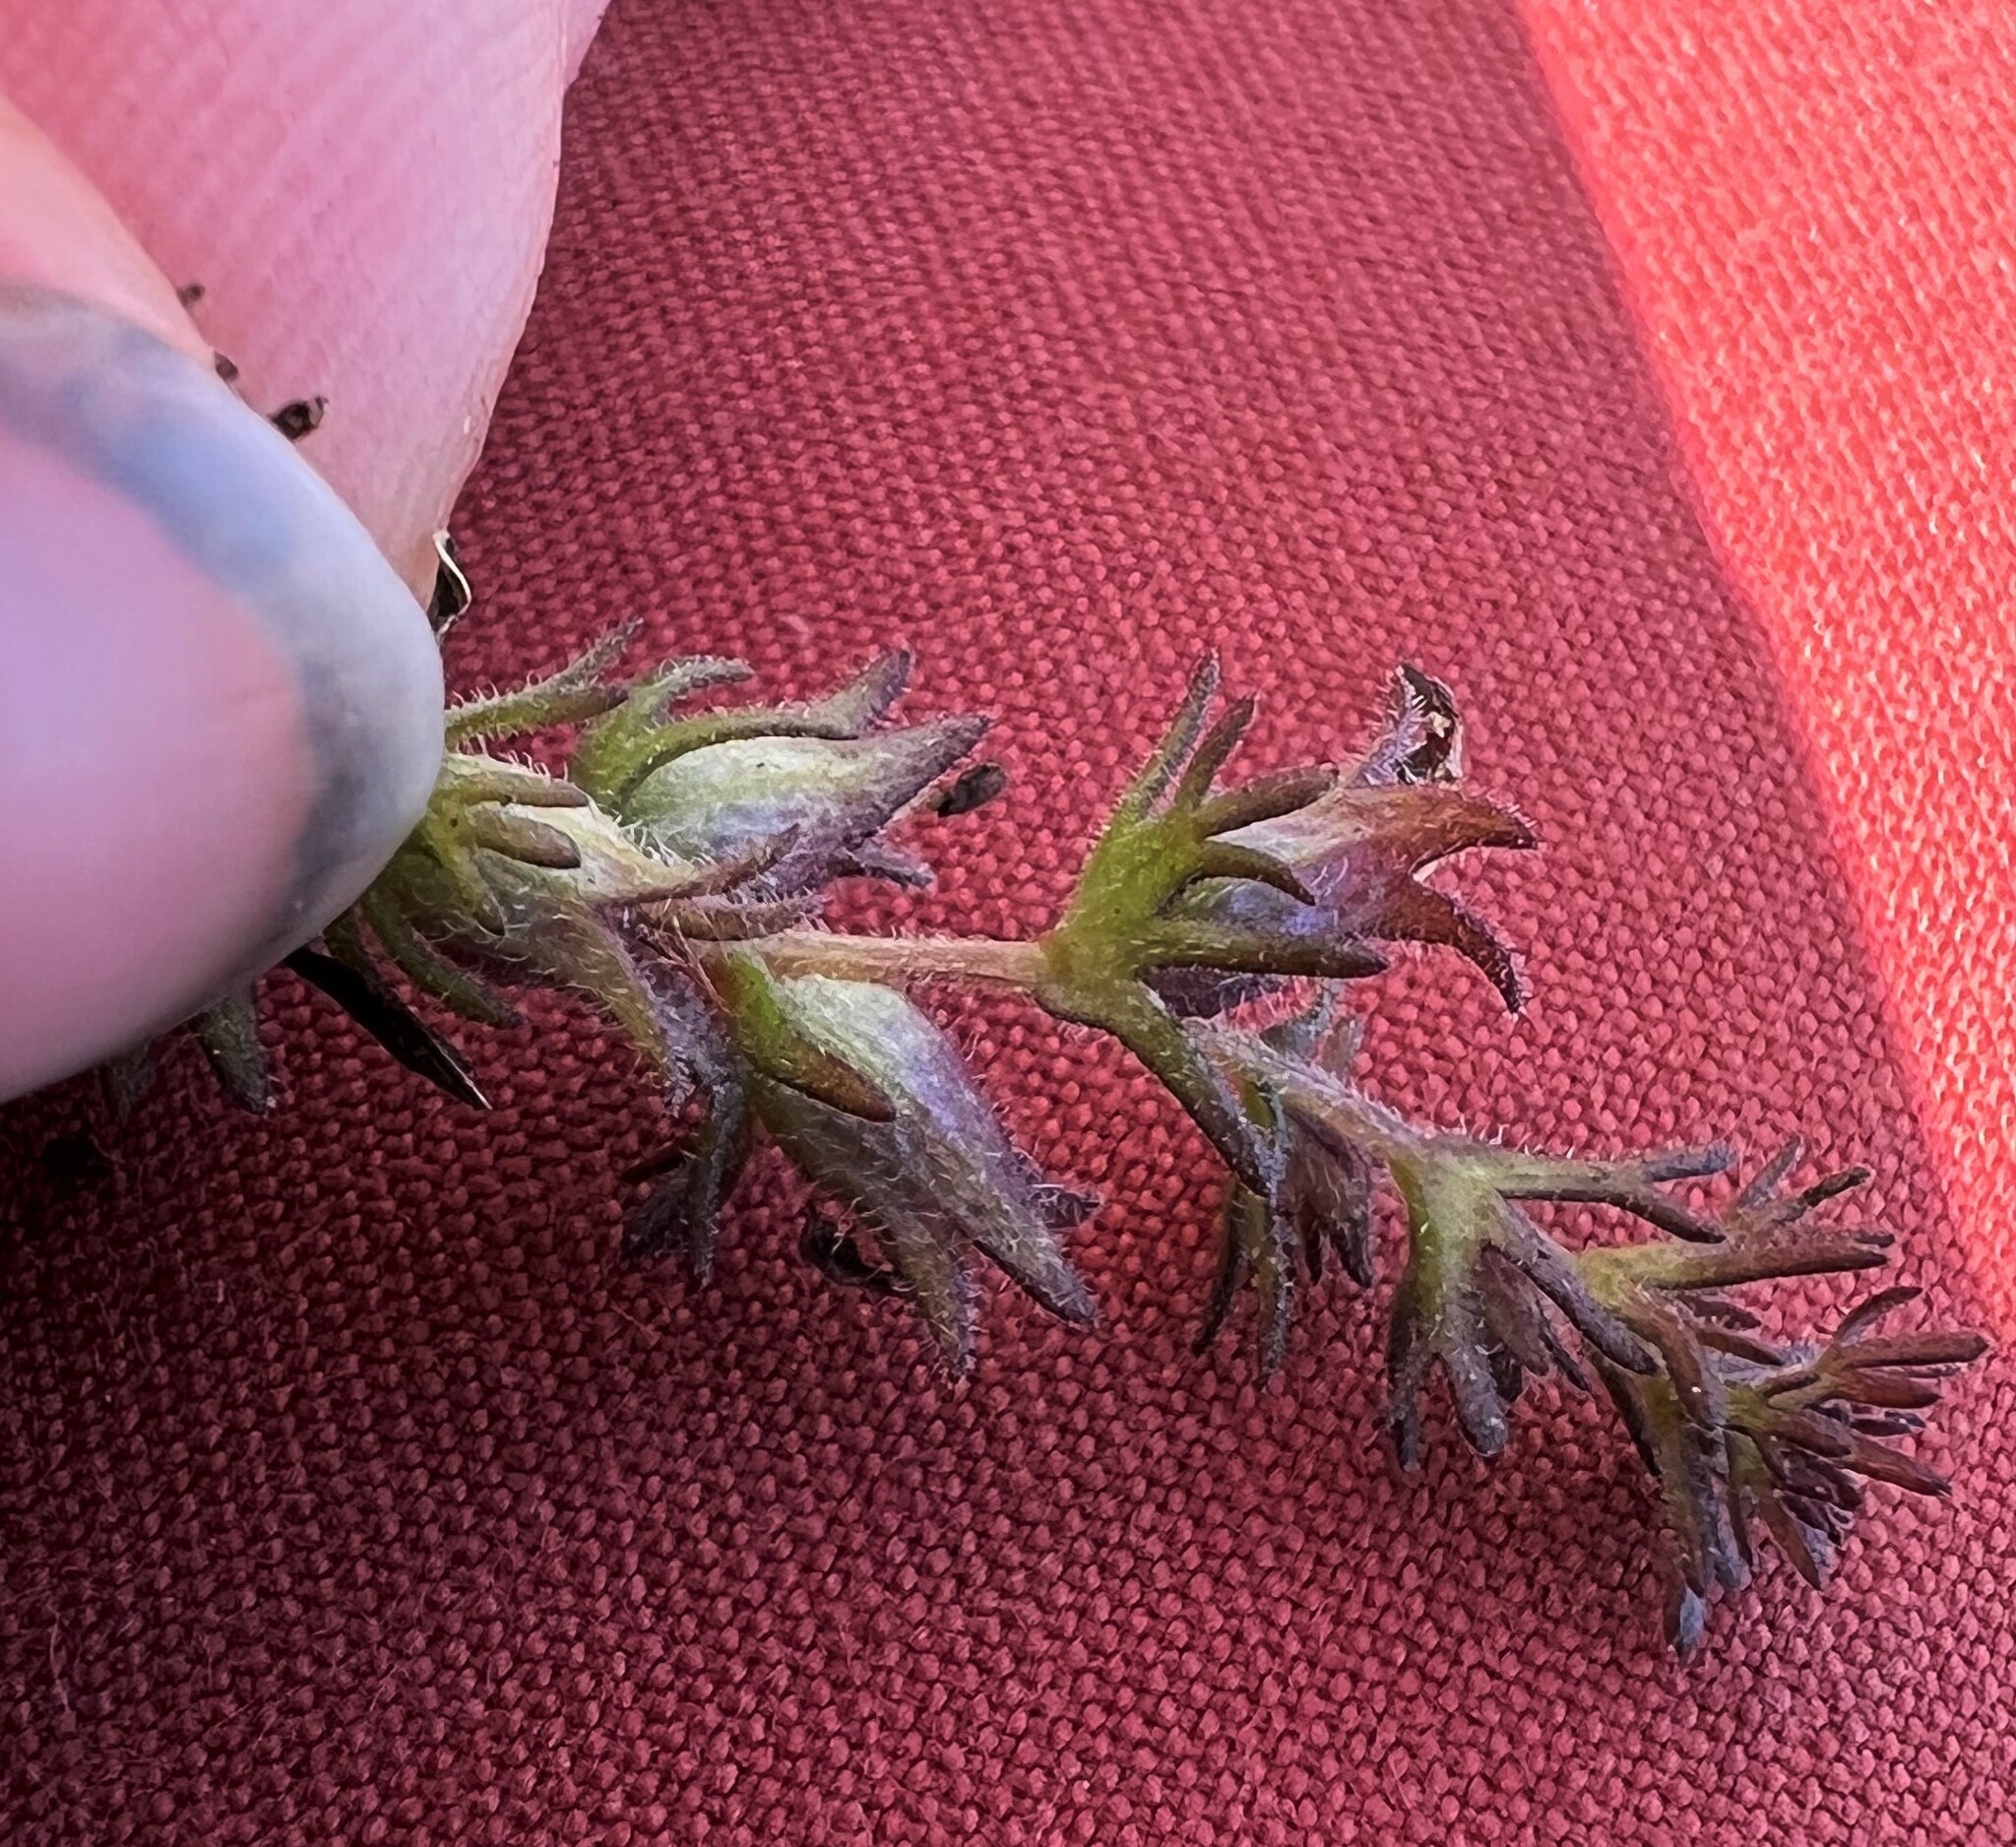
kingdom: Plantae
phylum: Tracheophyta
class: Magnoliopsida
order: Lamiales
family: Orobanchaceae
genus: Triphysaria
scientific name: Triphysaria pusilla
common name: Dwarf false owl-clover
